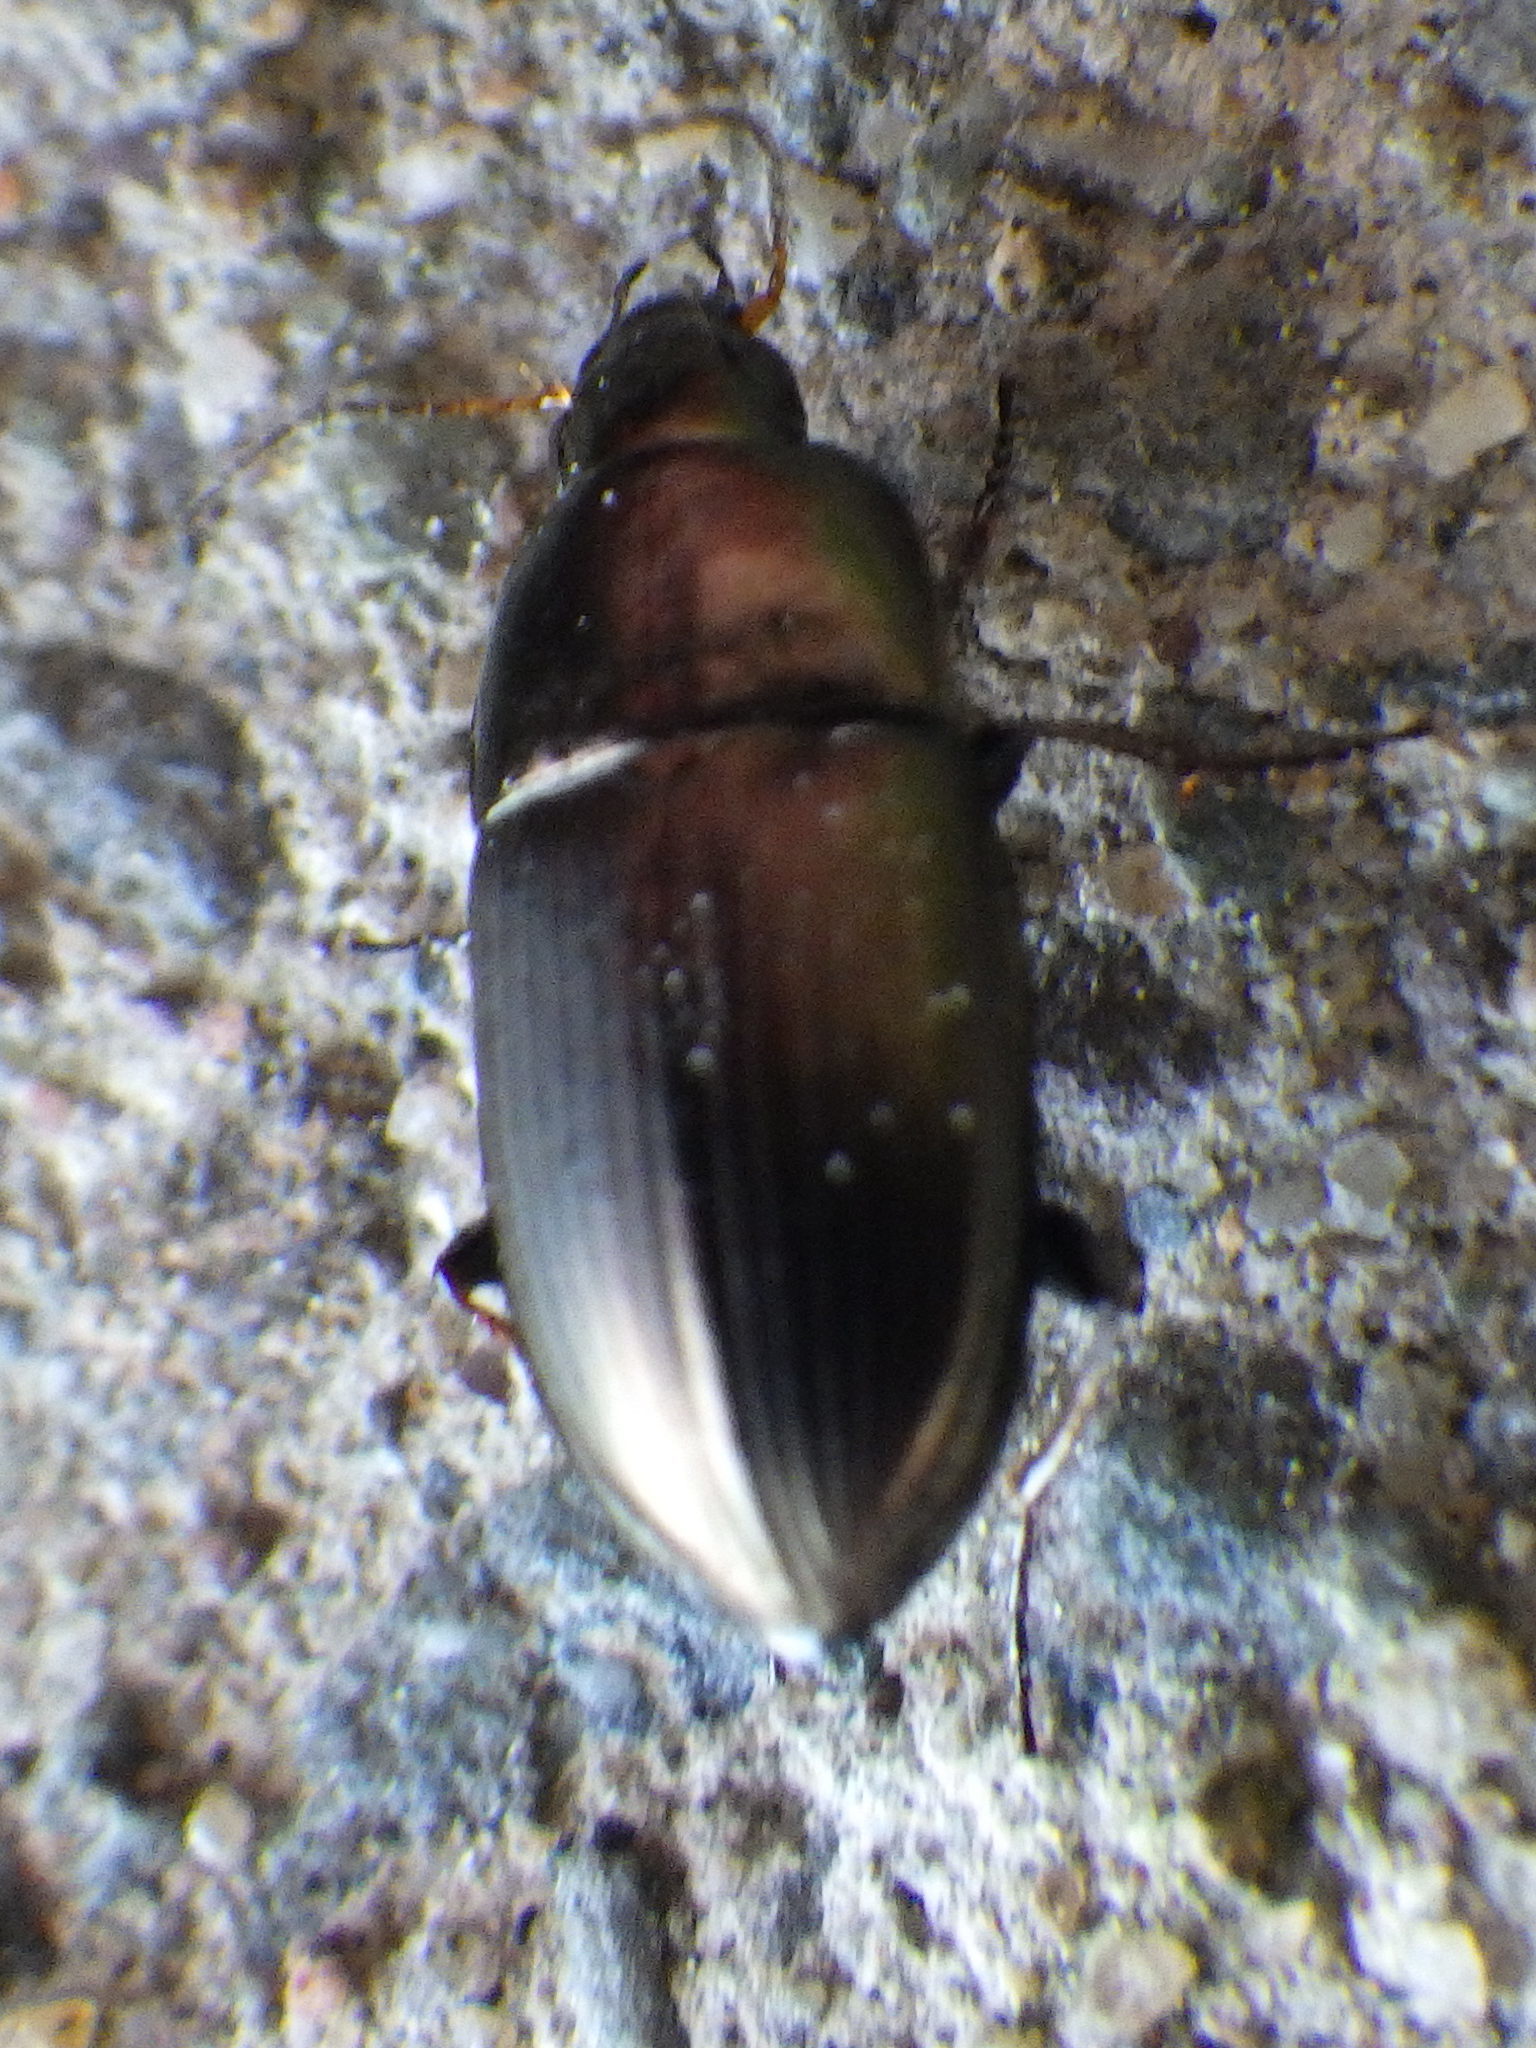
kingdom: Animalia
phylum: Arthropoda
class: Insecta
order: Coleoptera
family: Carabidae
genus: Amara
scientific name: Amara
